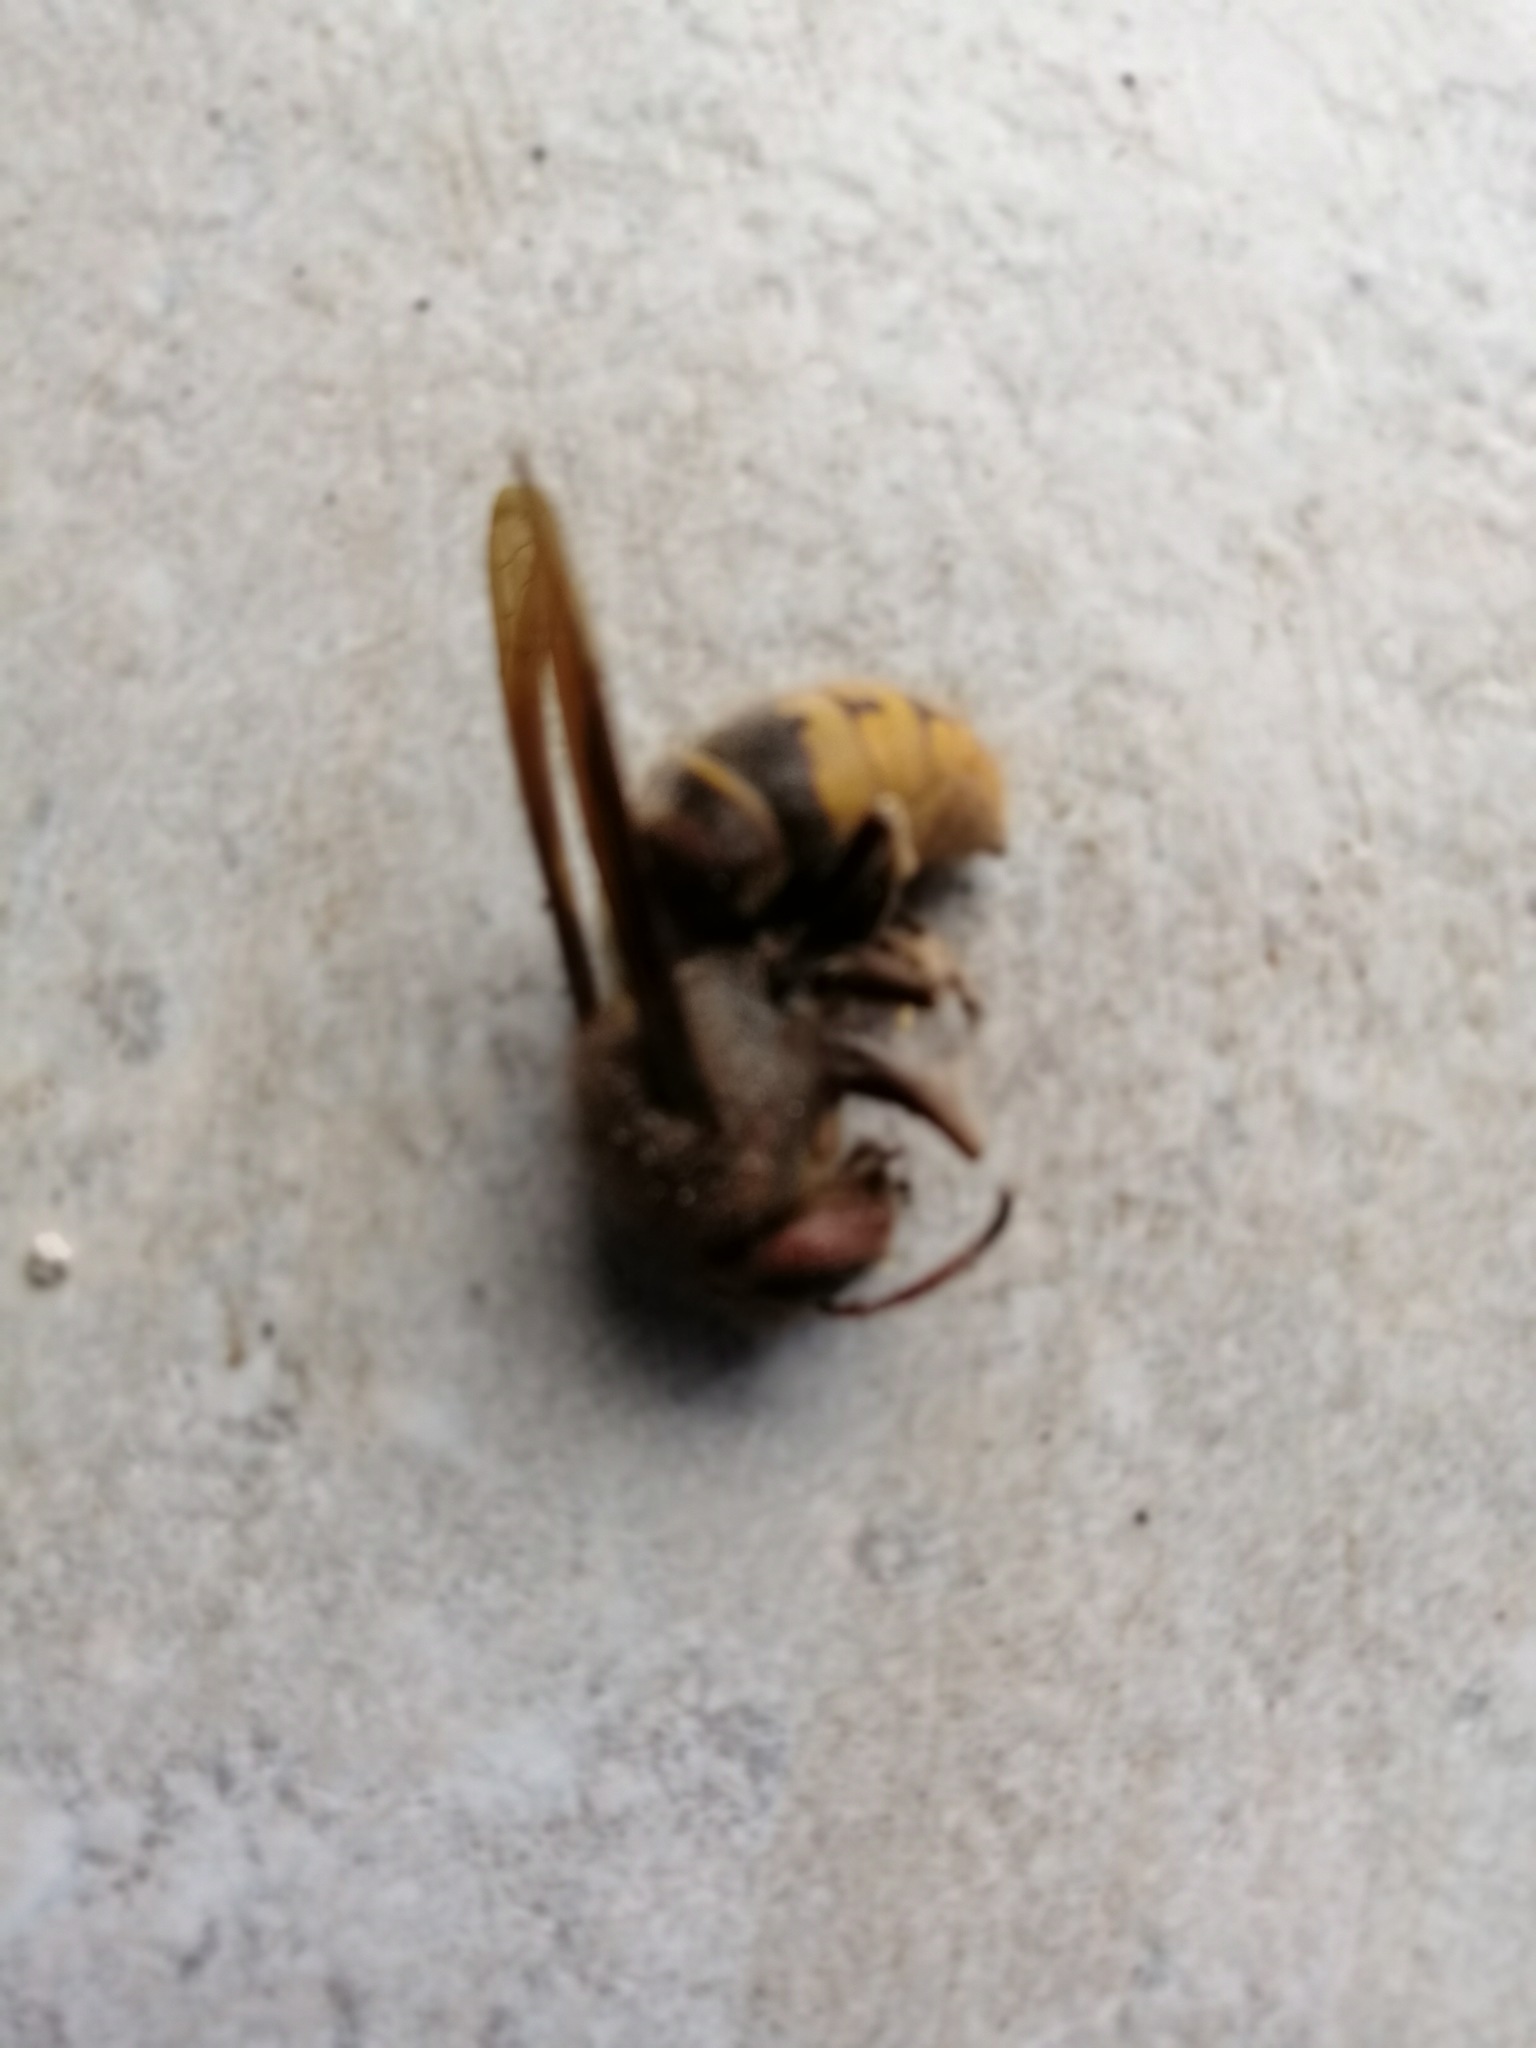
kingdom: Animalia
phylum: Arthropoda
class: Insecta
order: Hymenoptera
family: Vespidae
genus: Vespa
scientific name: Vespa crabro
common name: Hornet
